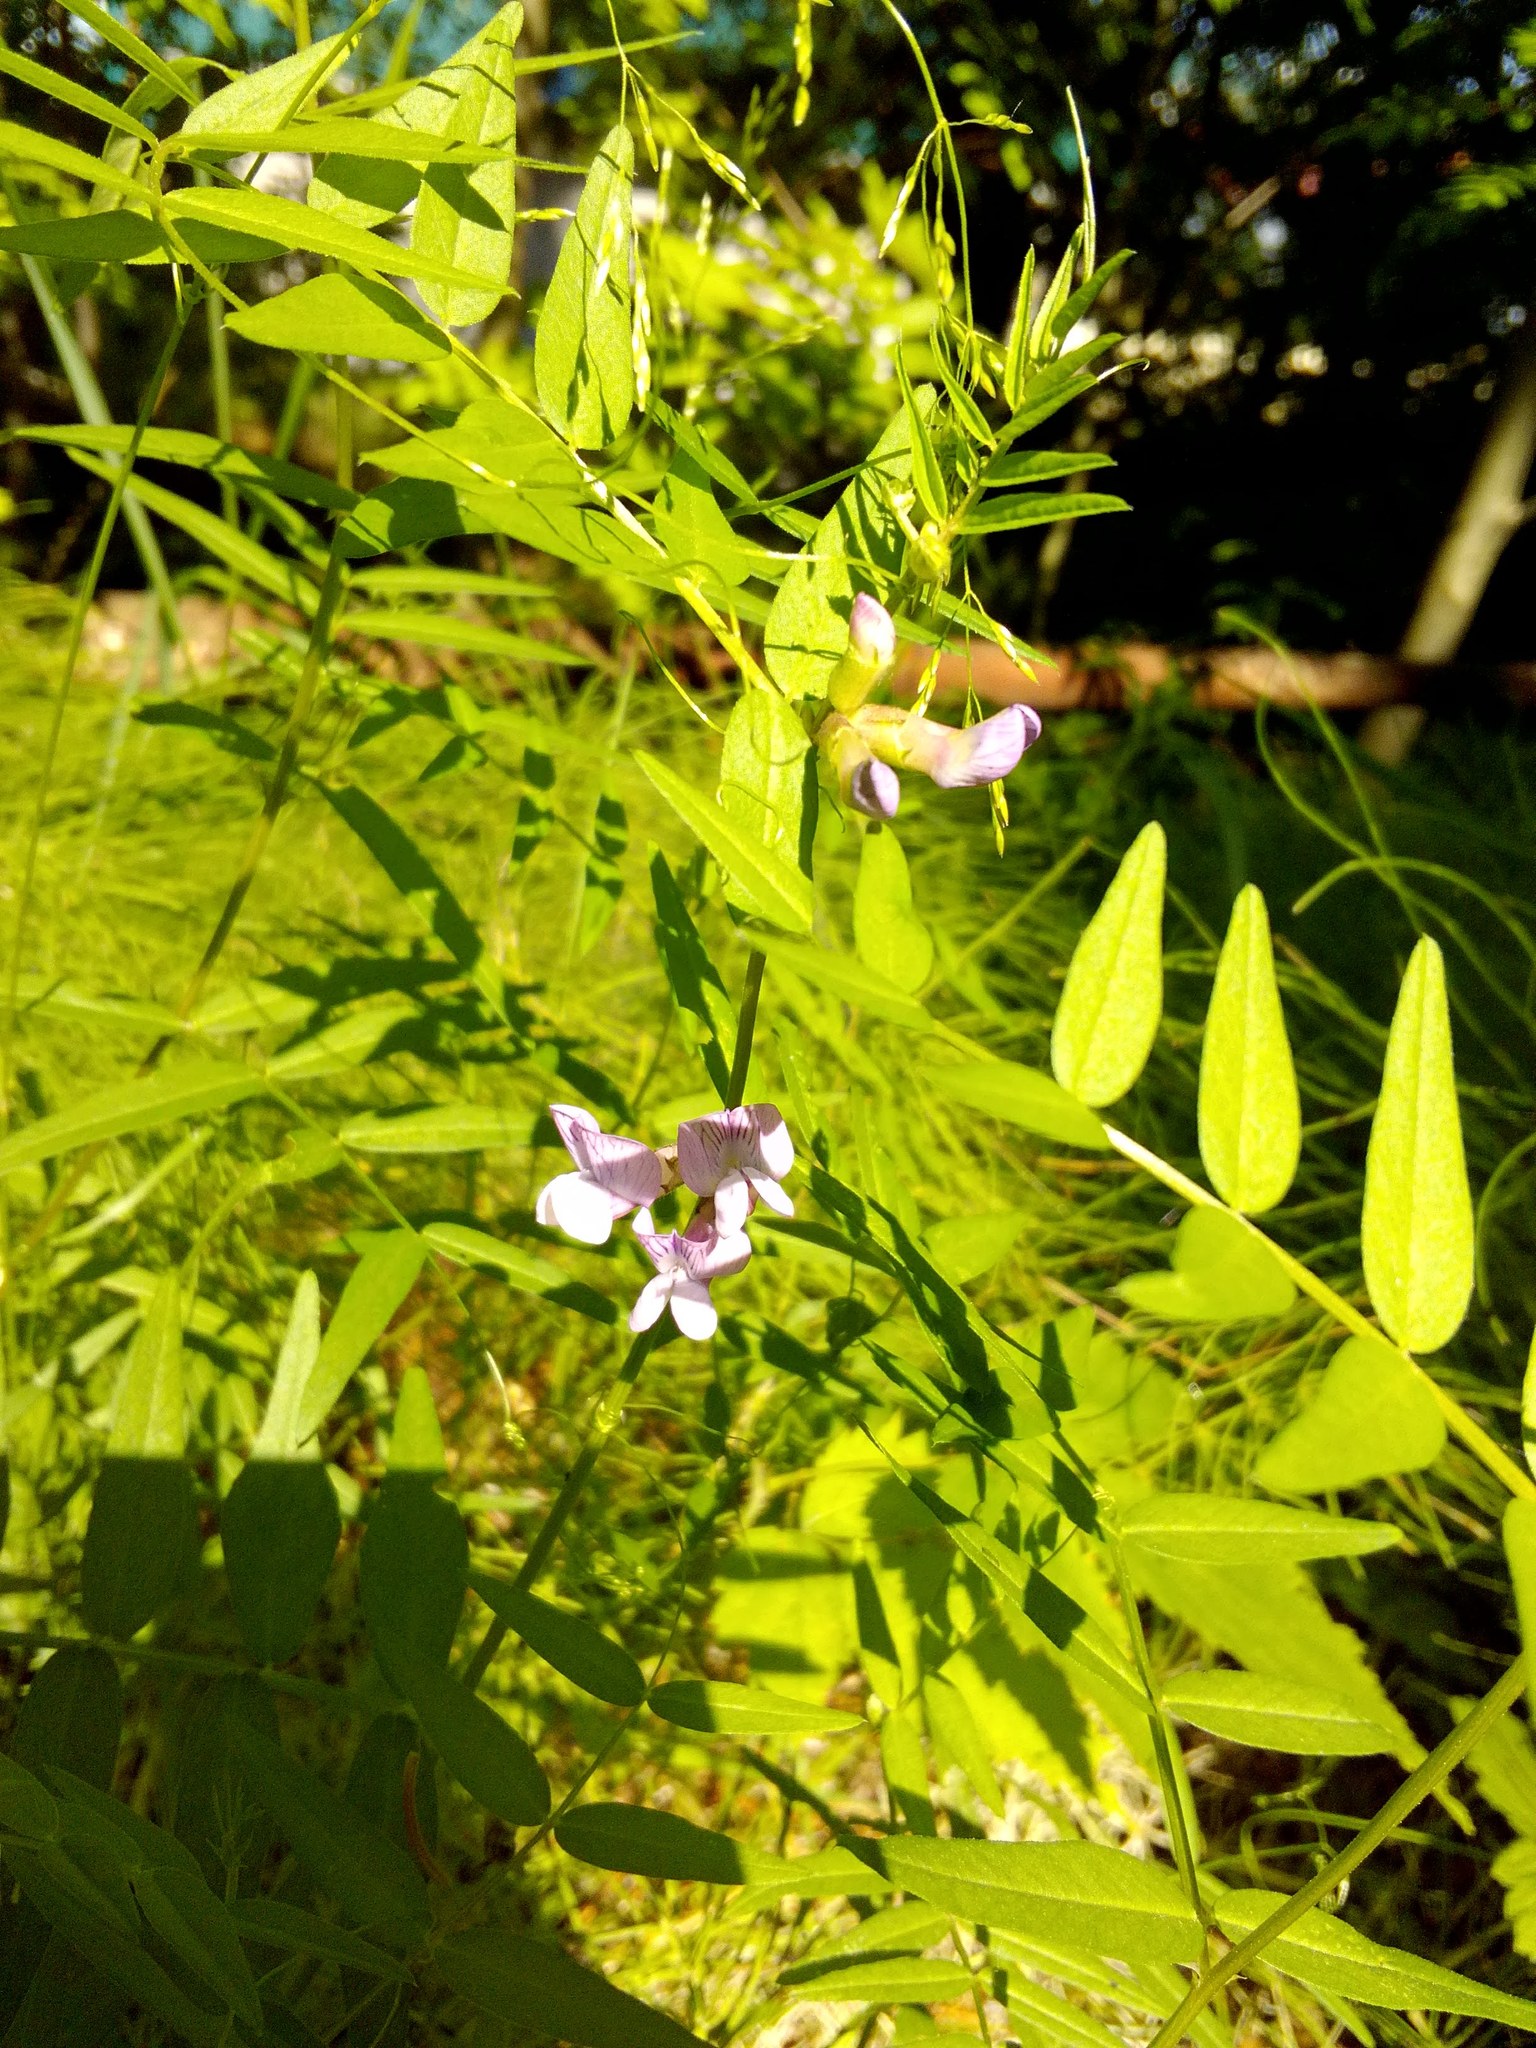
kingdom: Plantae
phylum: Tracheophyta
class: Magnoliopsida
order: Fabales
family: Fabaceae
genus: Vicia
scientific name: Vicia sepium
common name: Bush vetch
